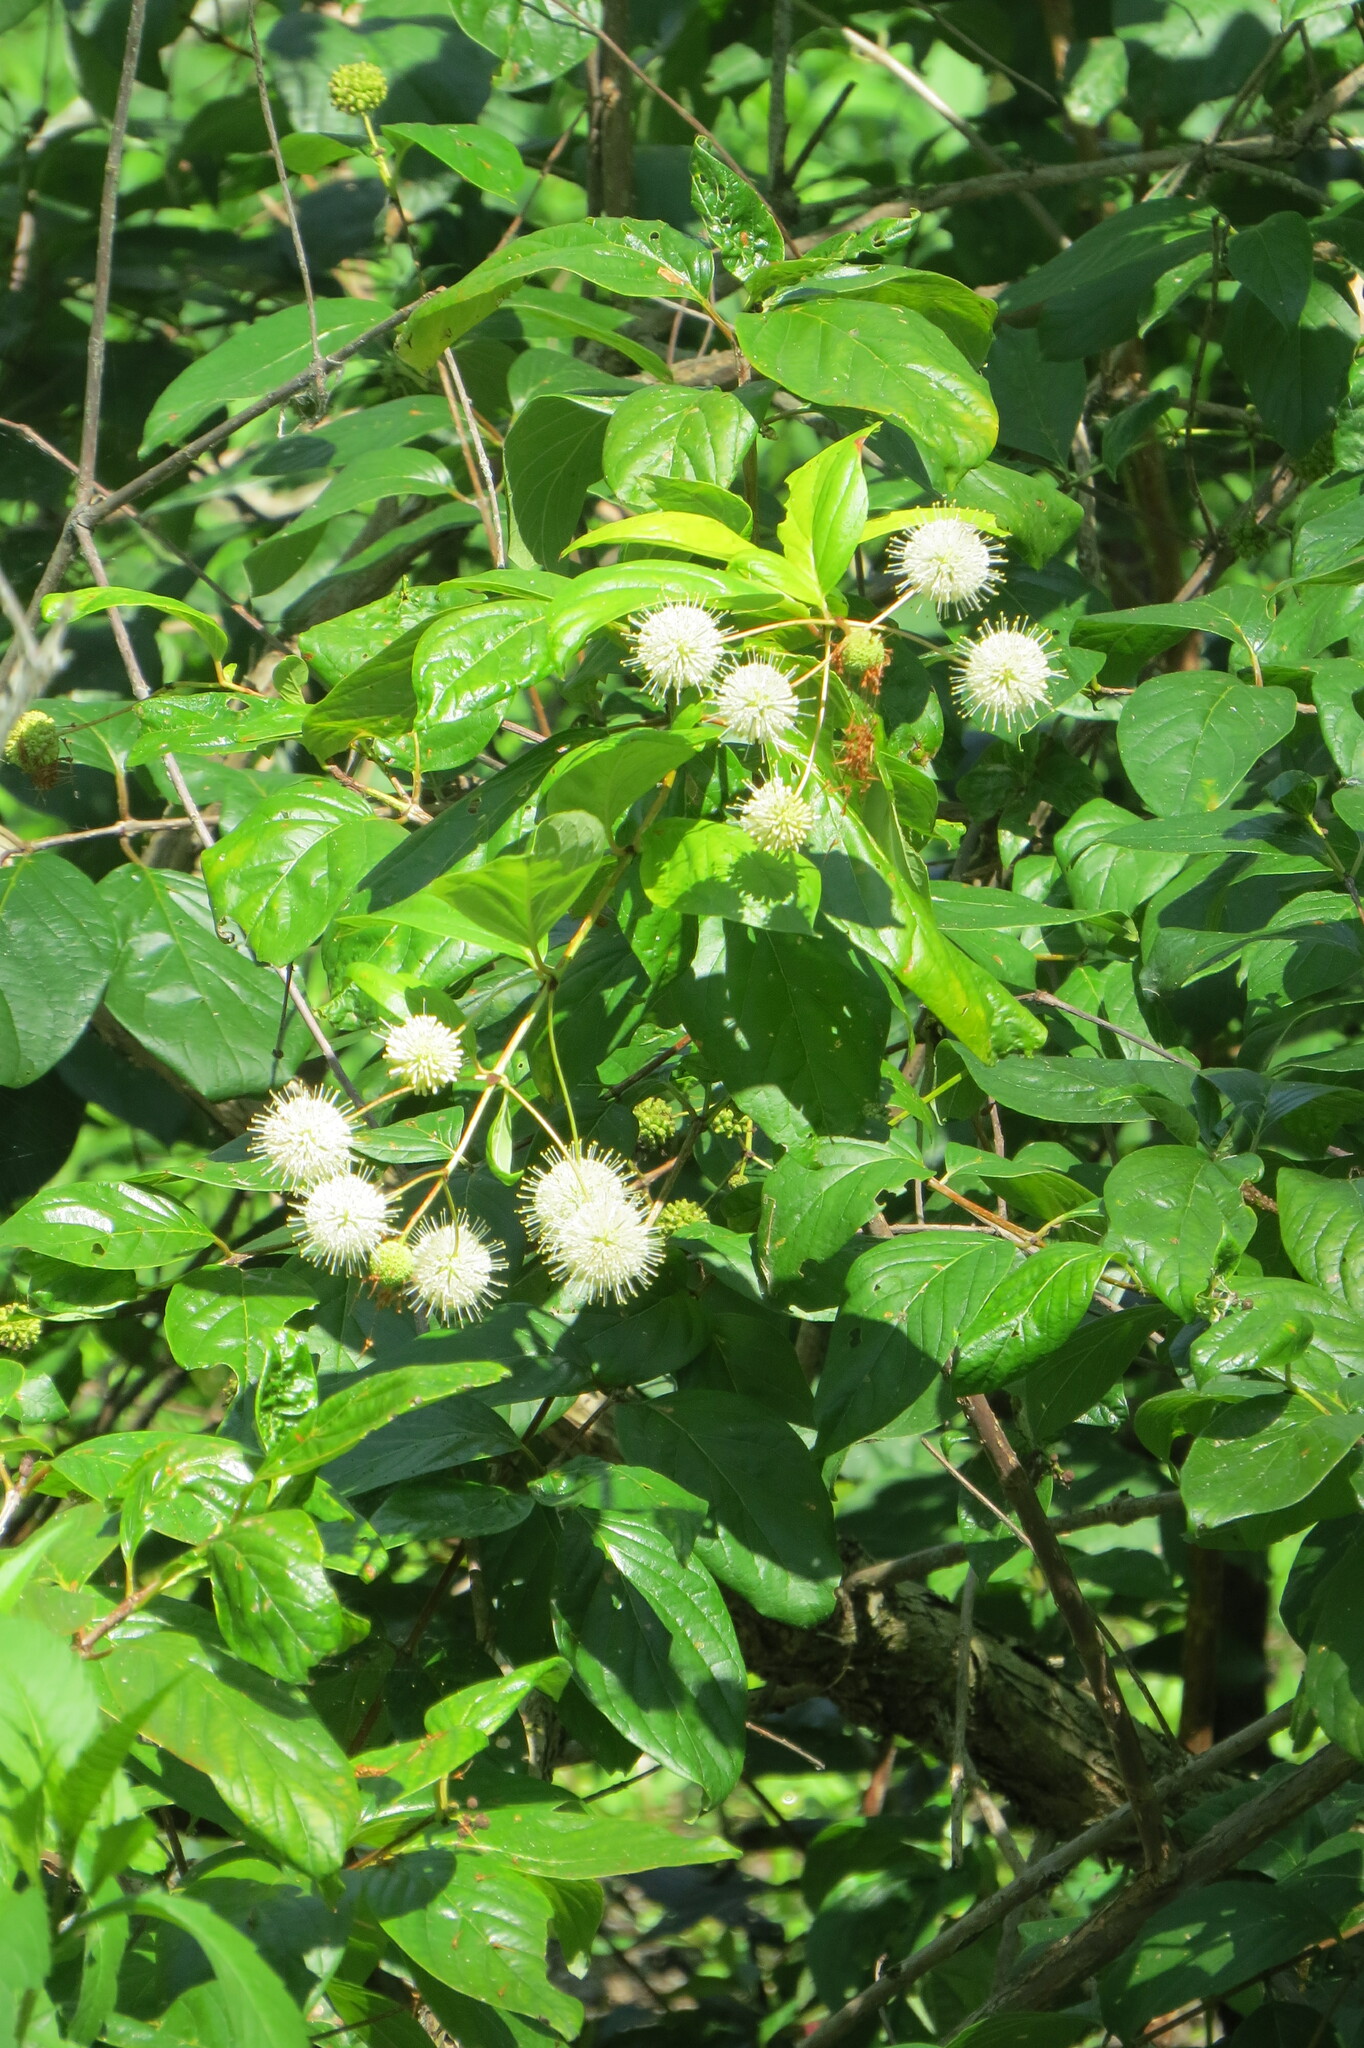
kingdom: Plantae
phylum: Tracheophyta
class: Magnoliopsida
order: Gentianales
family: Rubiaceae
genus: Cephalanthus
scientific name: Cephalanthus occidentalis
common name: Button-willow
